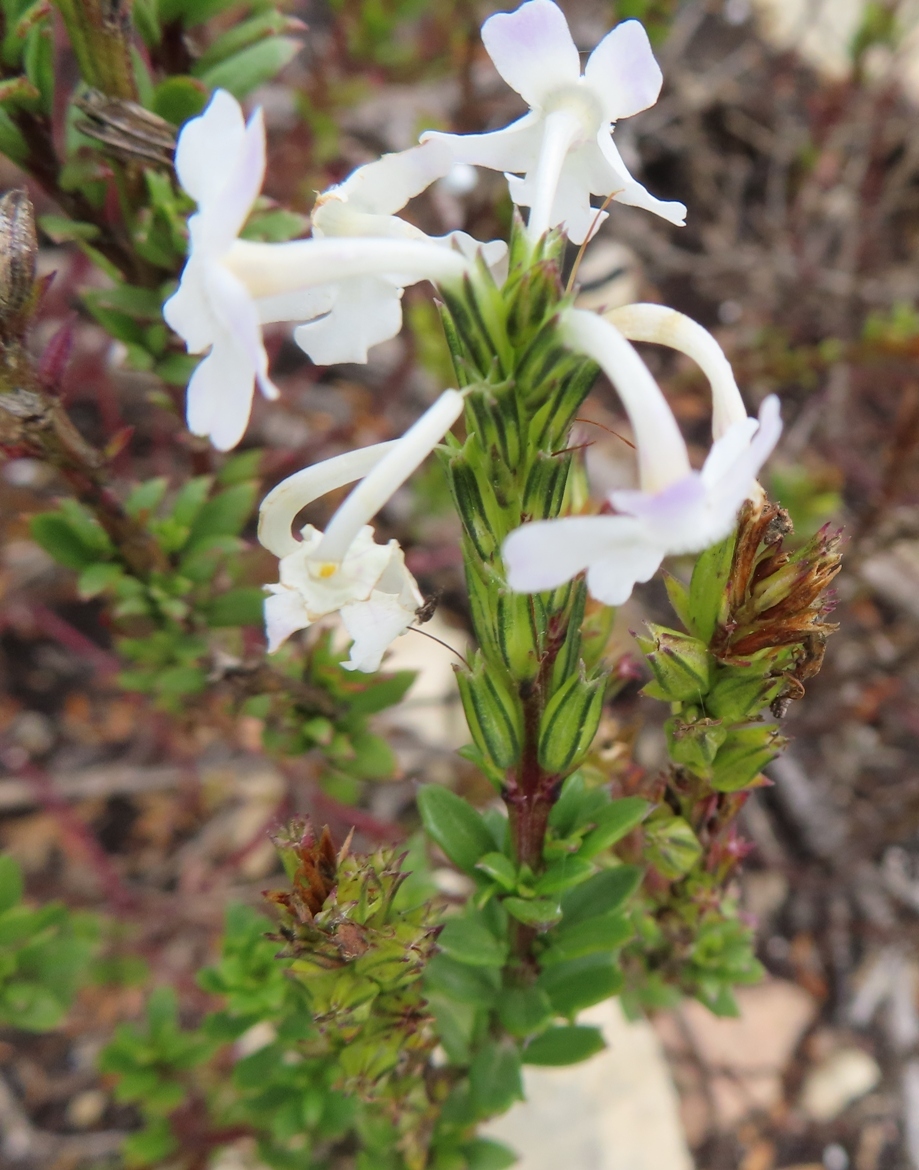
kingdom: Plantae
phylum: Tracheophyta
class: Magnoliopsida
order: Lamiales
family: Verbenaceae
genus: Chascanum
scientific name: Chascanum cernuum
